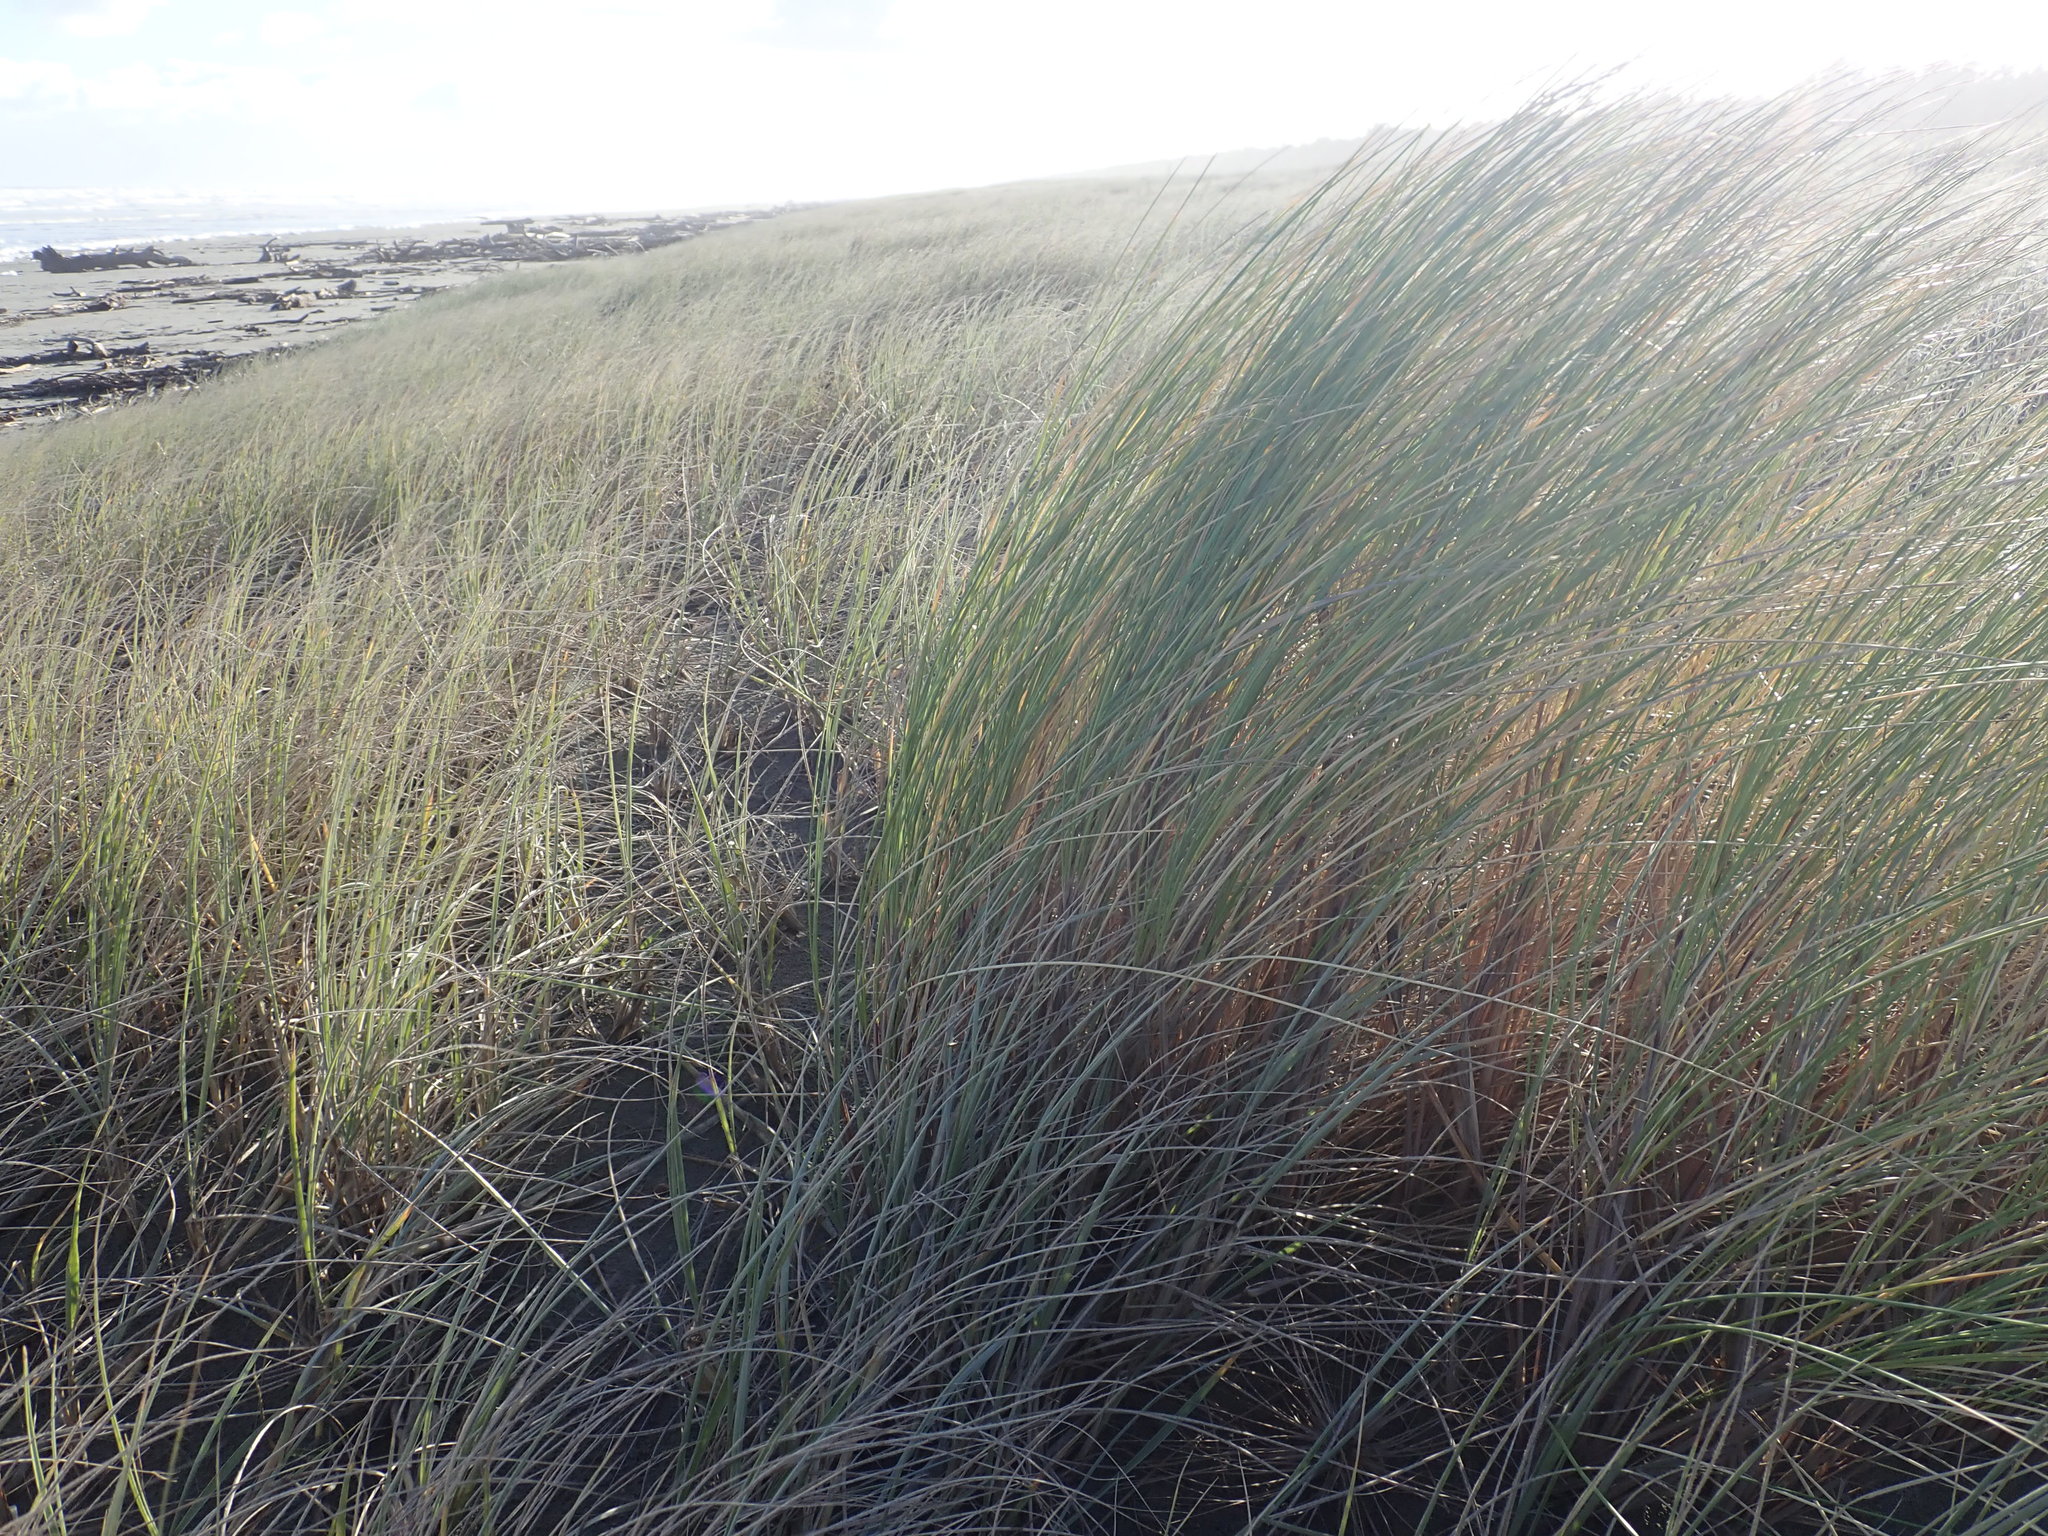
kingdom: Plantae
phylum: Tracheophyta
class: Liliopsida
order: Poales
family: Poaceae
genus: Calamagrostis
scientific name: Calamagrostis arenaria
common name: European beachgrass
